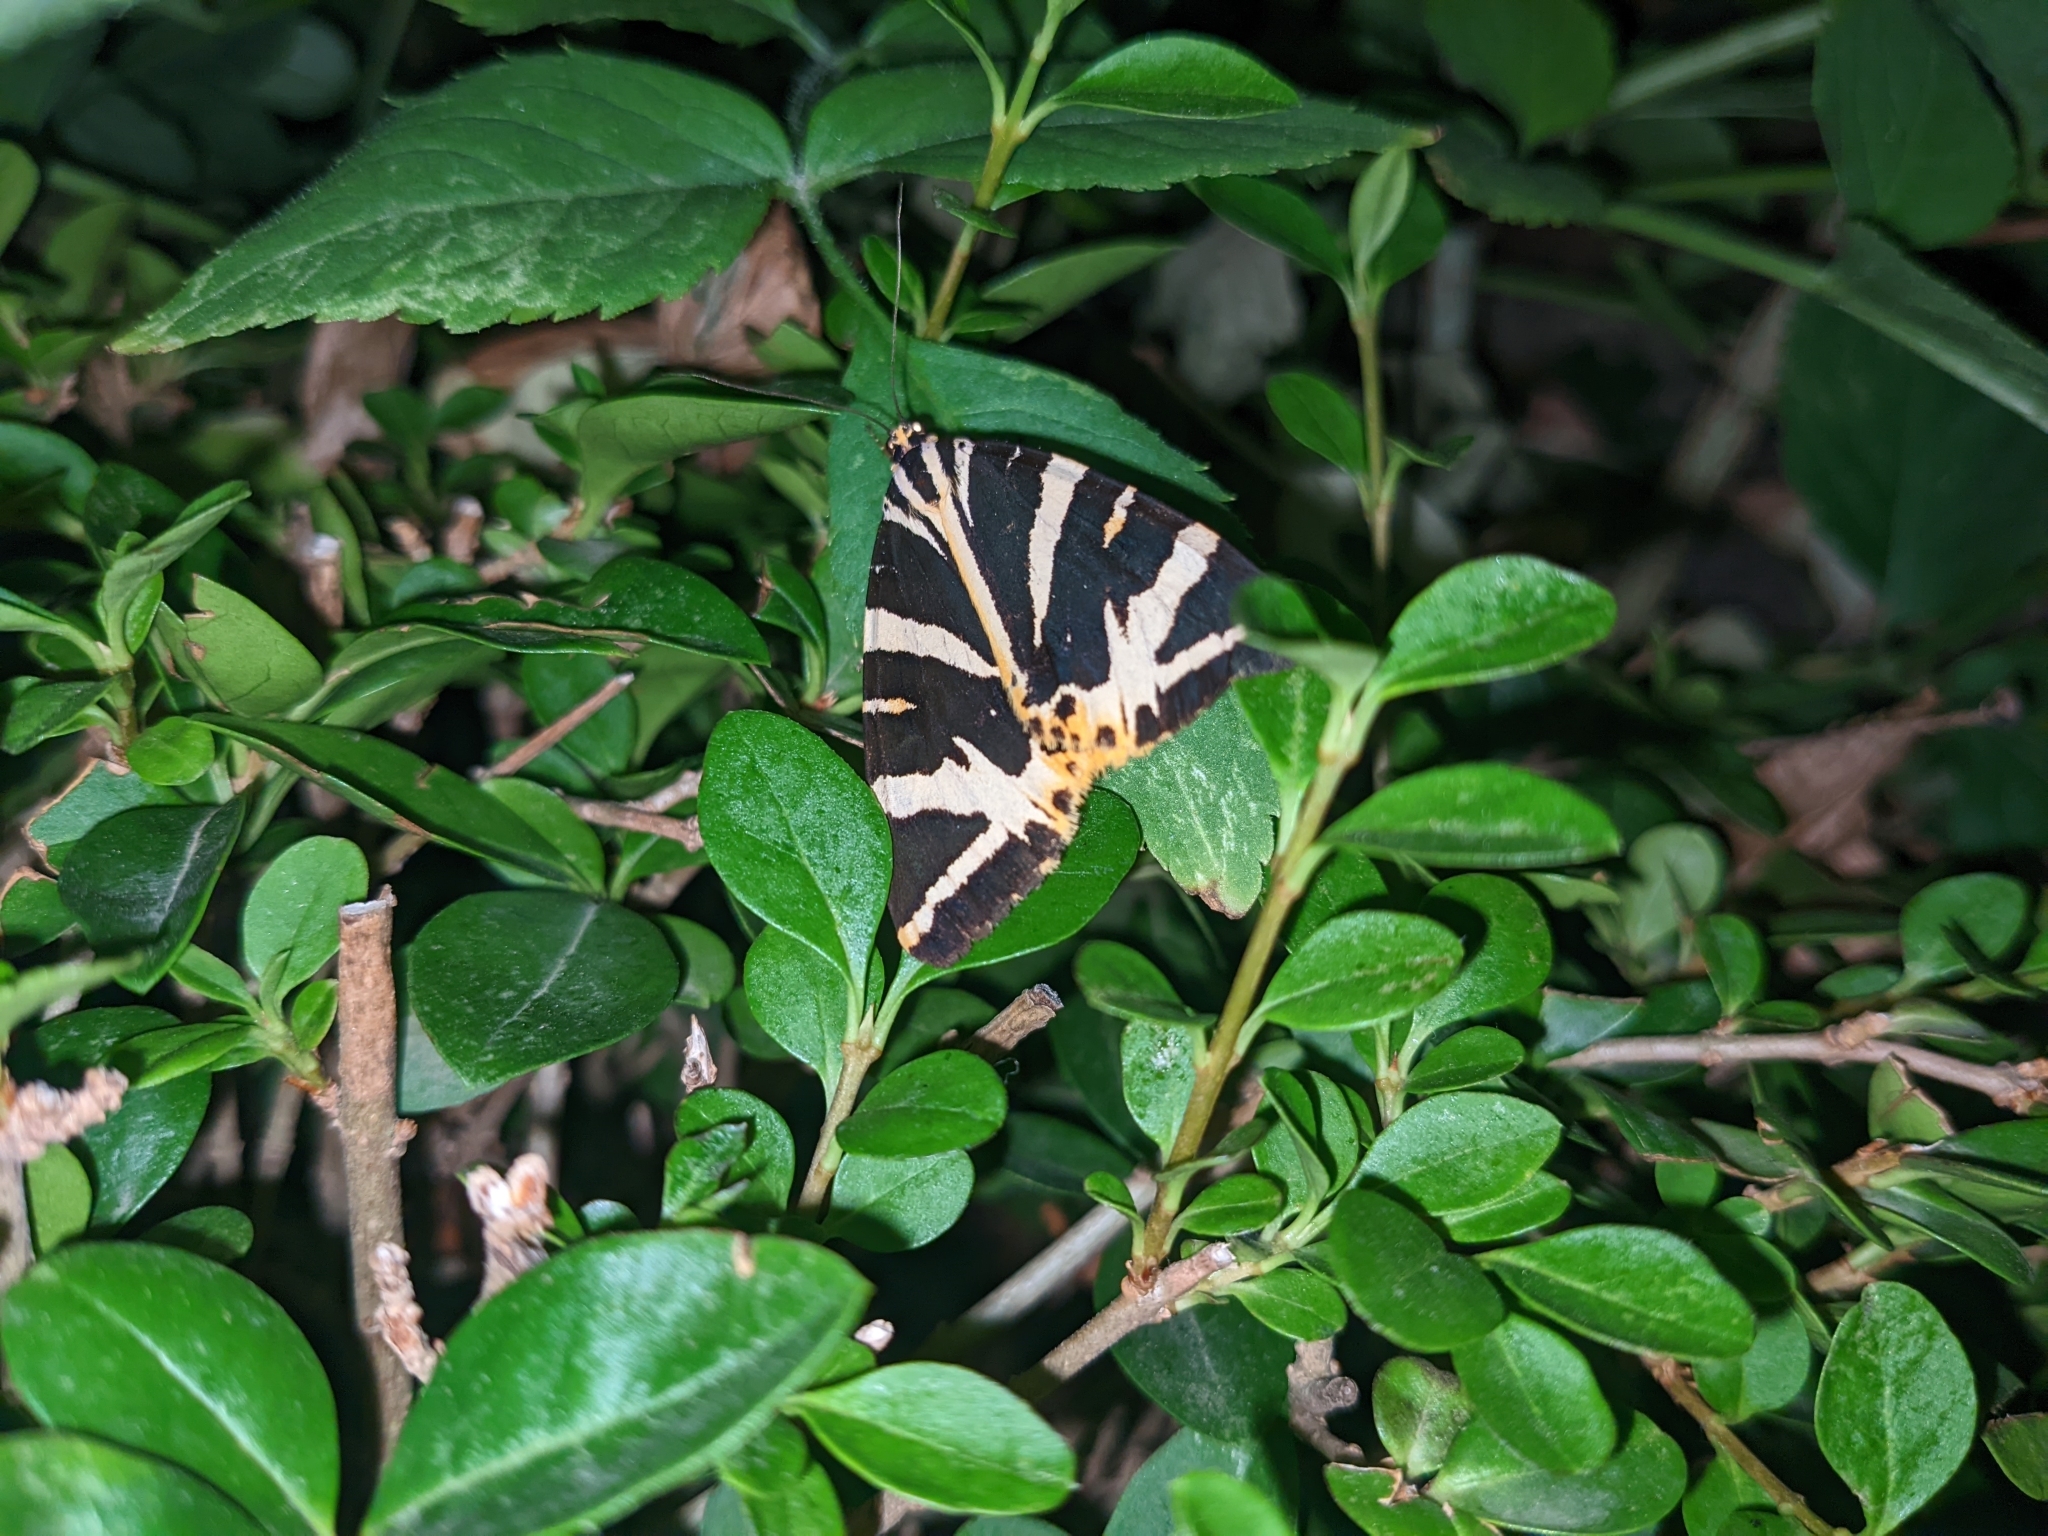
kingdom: Animalia
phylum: Arthropoda
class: Insecta
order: Lepidoptera
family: Erebidae
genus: Euplagia
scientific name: Euplagia quadripunctaria
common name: Jersey tiger
